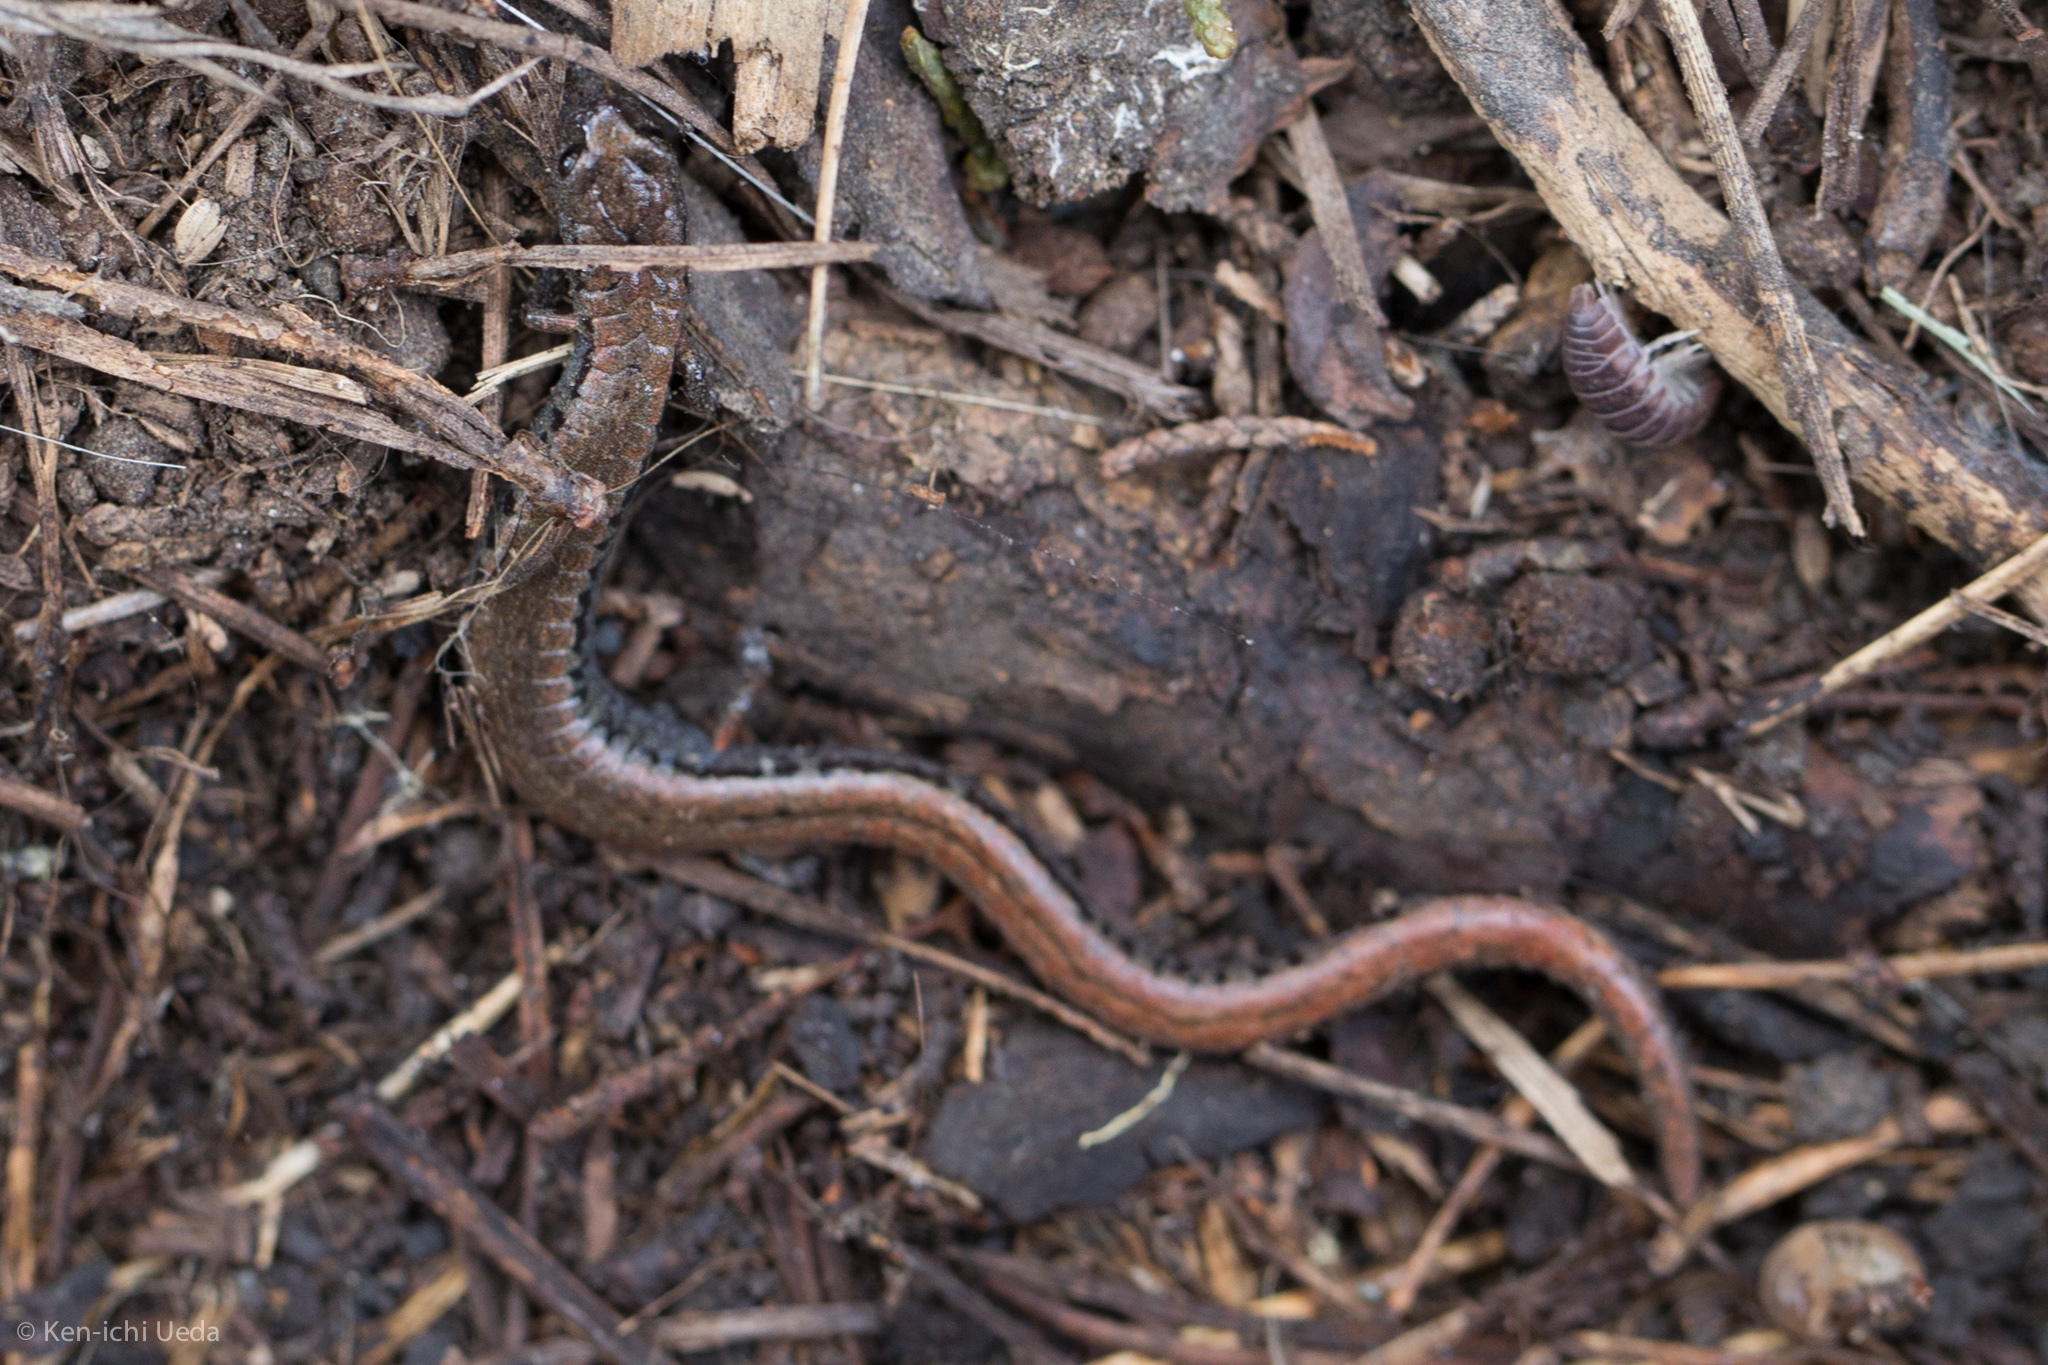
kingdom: Animalia
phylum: Chordata
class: Amphibia
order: Caudata
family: Plethodontidae
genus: Batrachoseps
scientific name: Batrachoseps attenuatus
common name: California slender salamander
